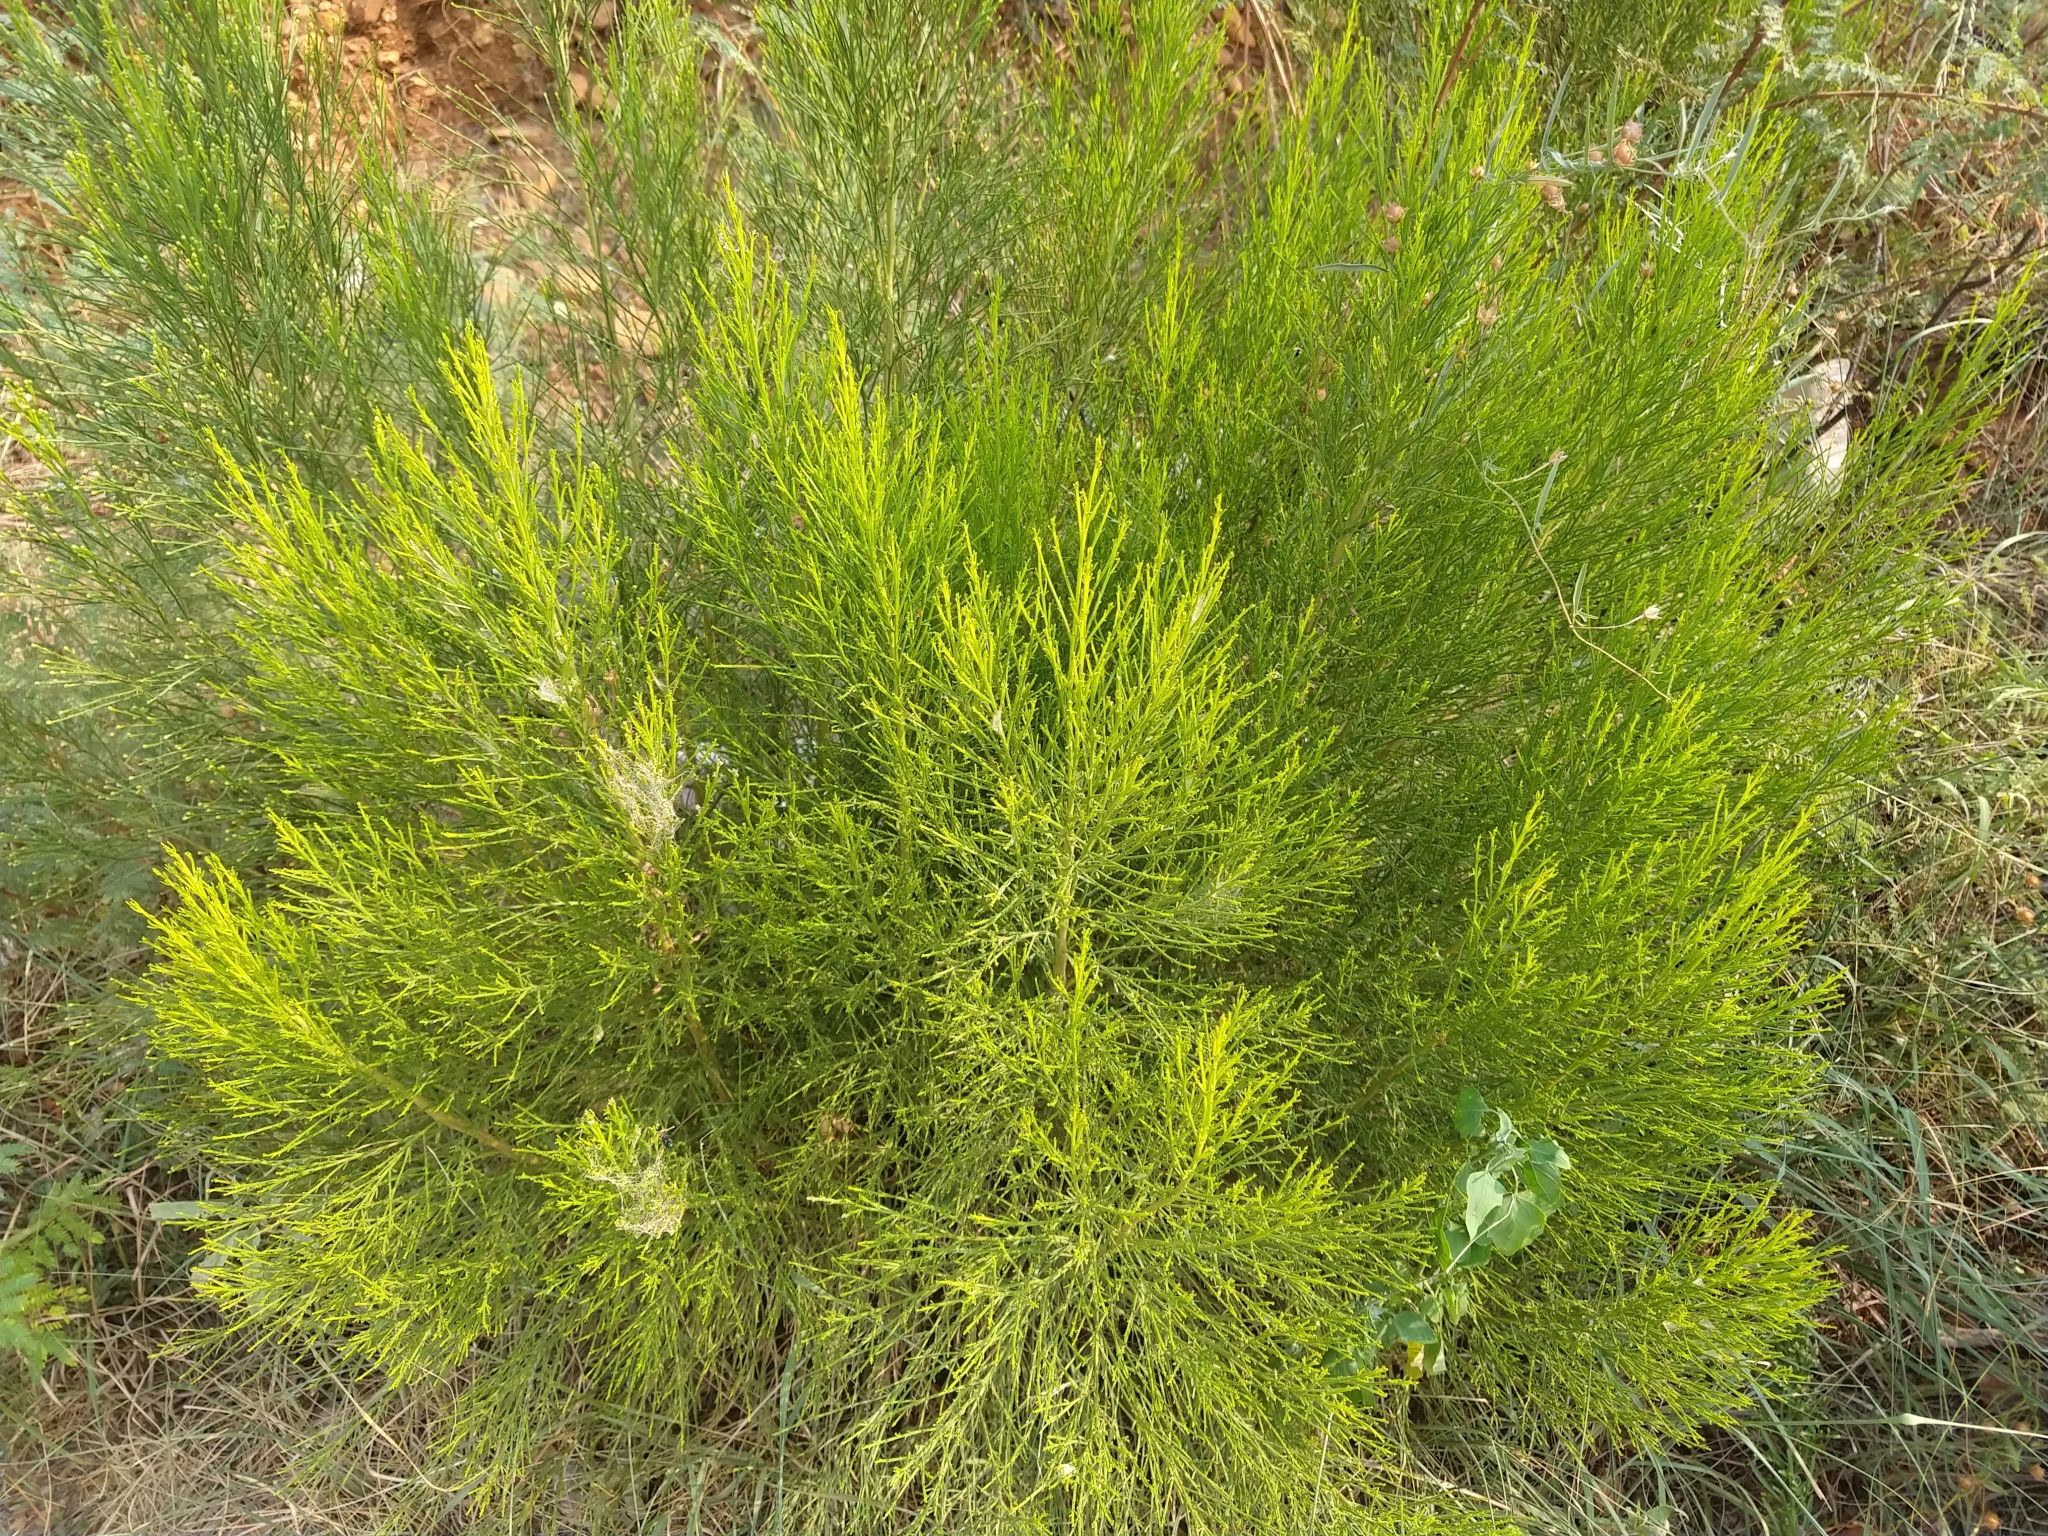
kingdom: Plantae
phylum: Tracheophyta
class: Magnoliopsida
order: Asterales
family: Asteraceae
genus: Baccharis
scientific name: Baccharis sarothroides
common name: Desert-broom
